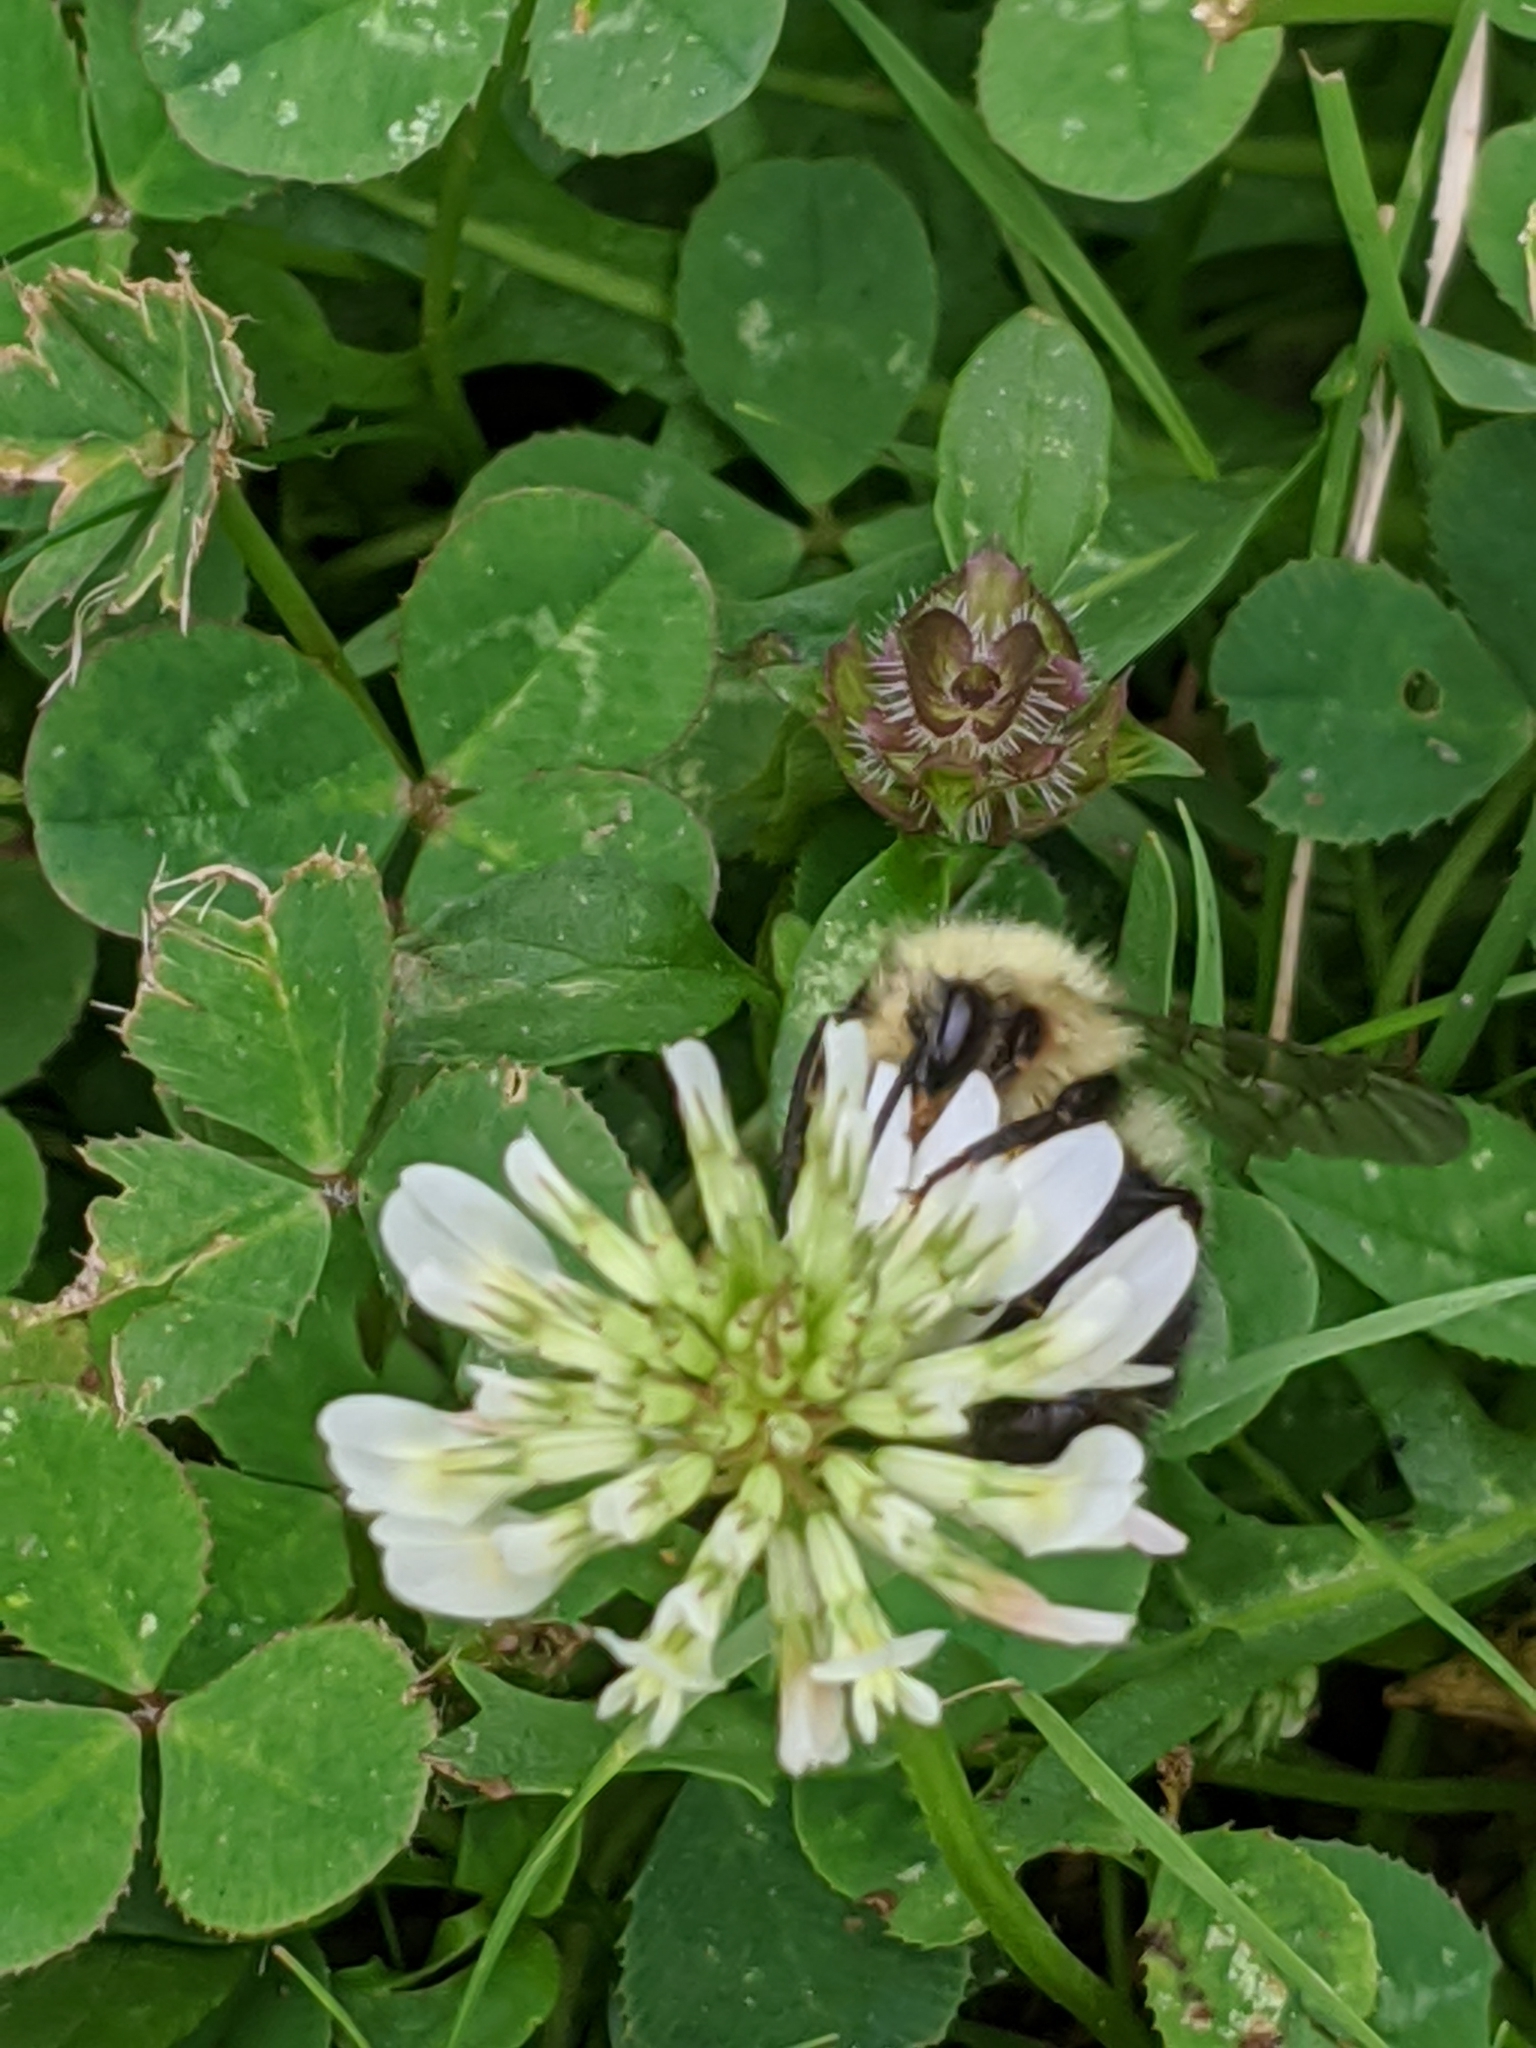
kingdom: Animalia
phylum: Arthropoda
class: Insecta
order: Hymenoptera
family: Apidae
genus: Pyrobombus
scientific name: Pyrobombus
